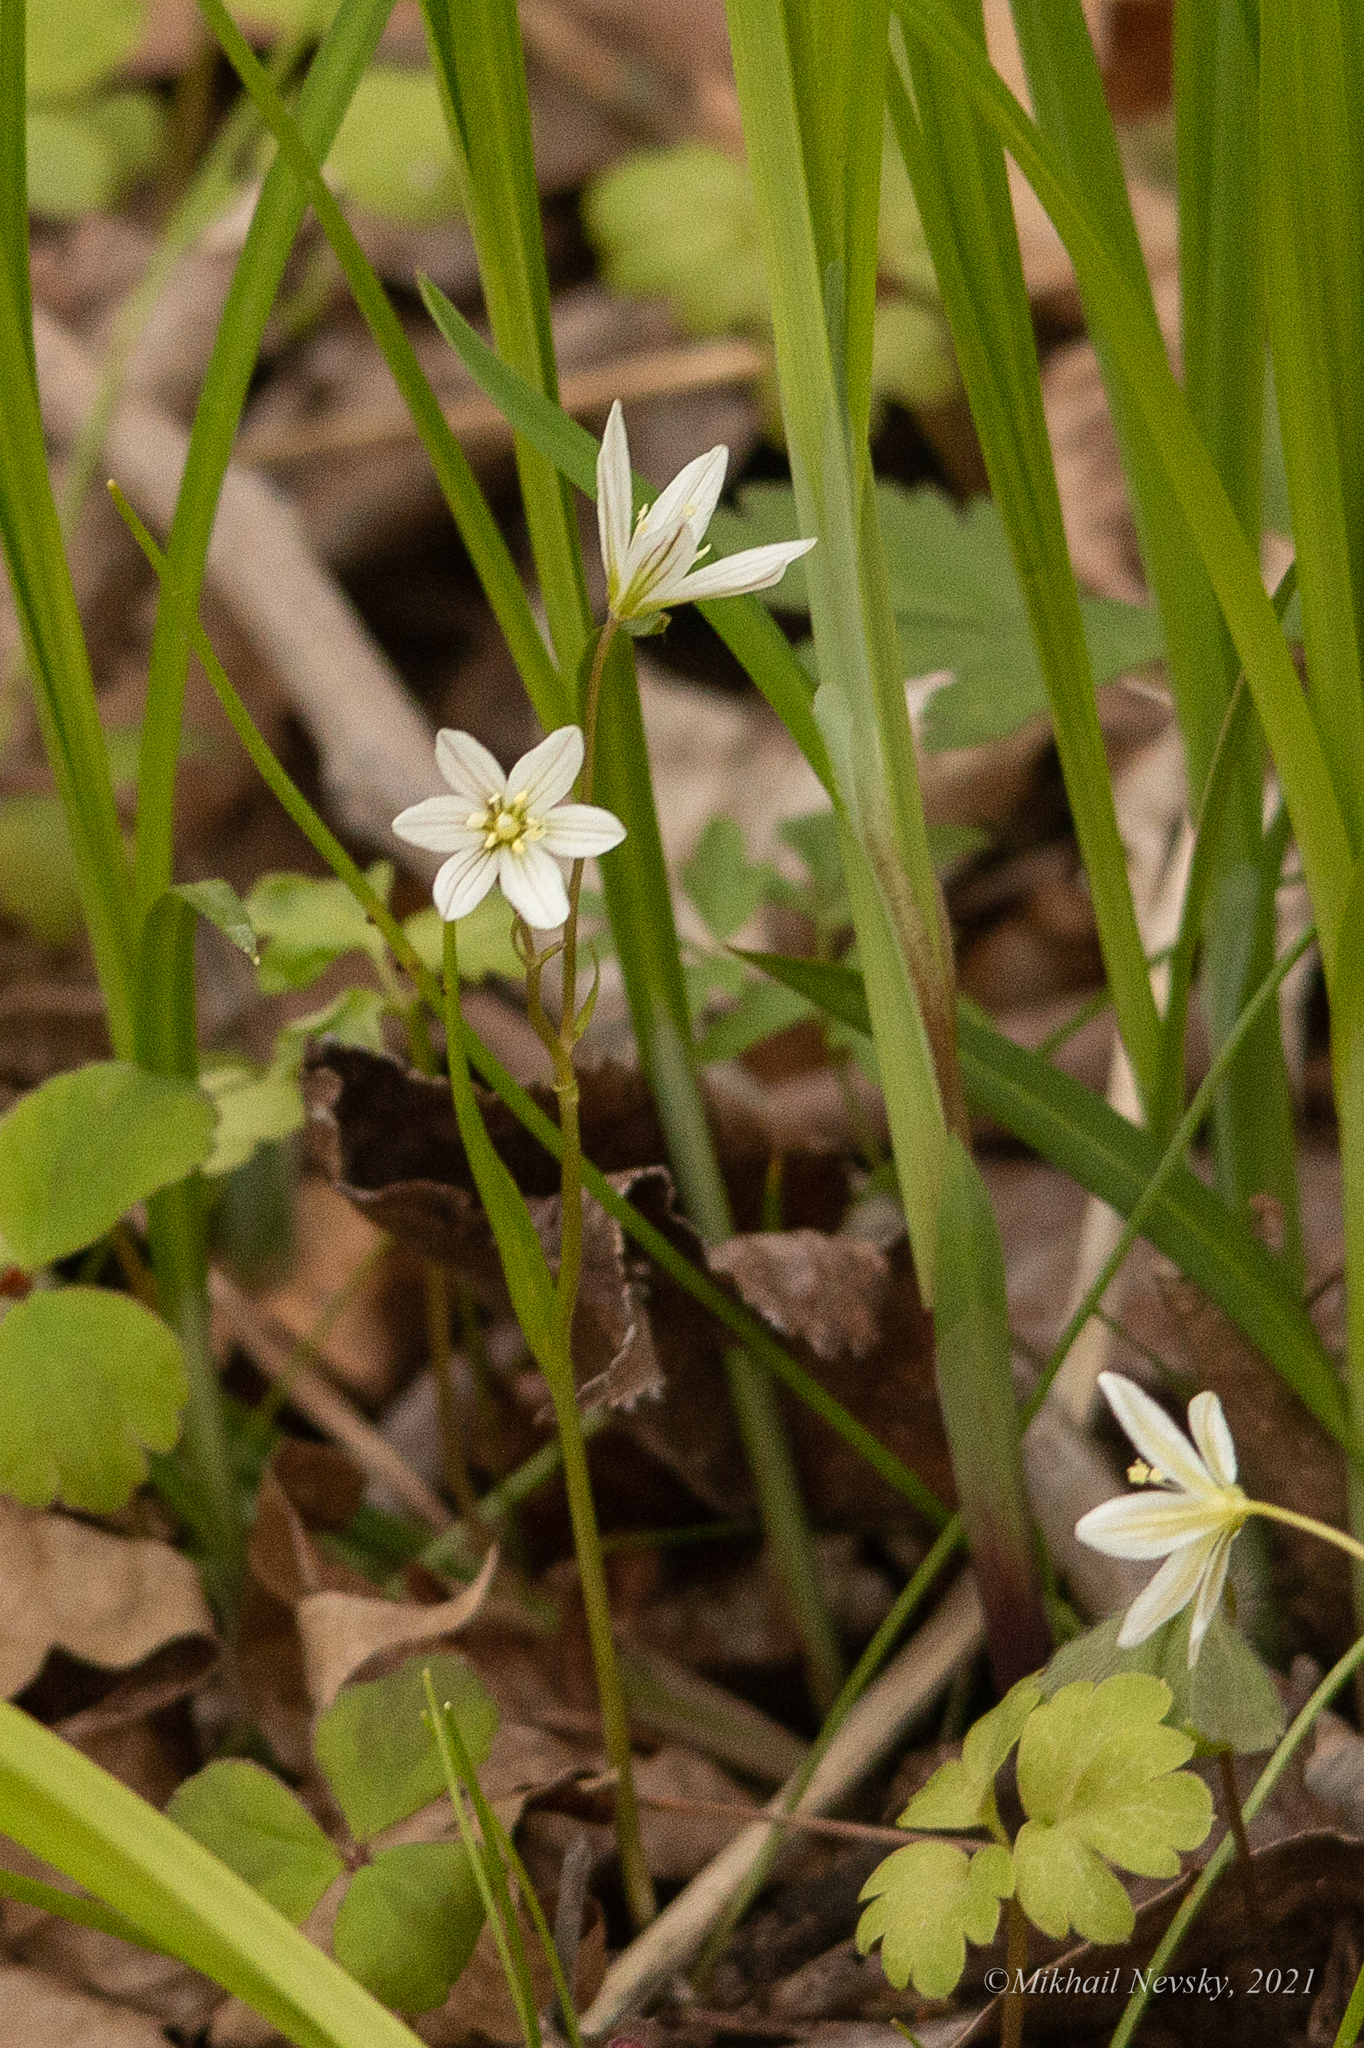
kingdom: Plantae
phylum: Tracheophyta
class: Liliopsida
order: Liliales
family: Liliaceae
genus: Gagea
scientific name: Gagea triflora
